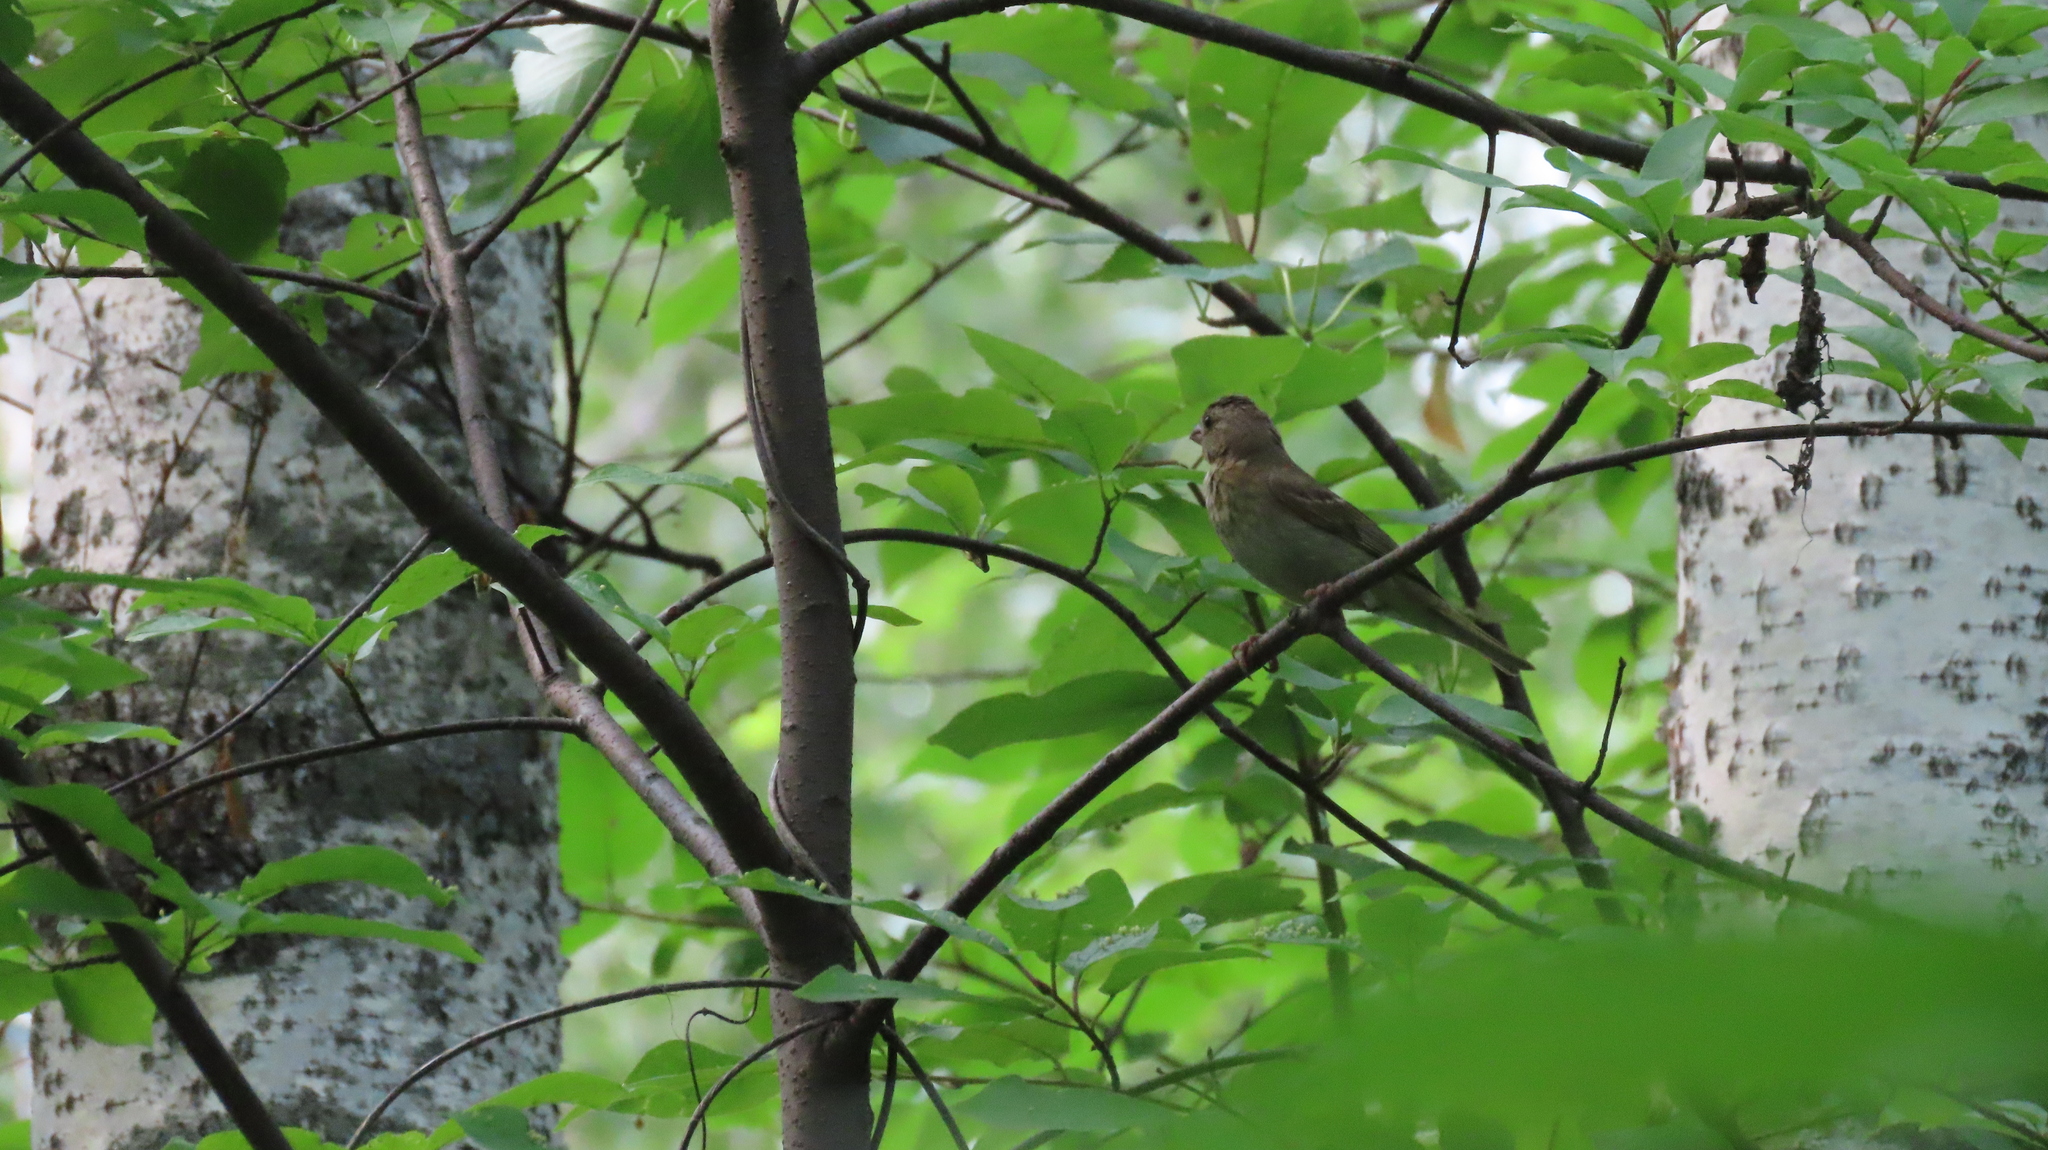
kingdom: Animalia
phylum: Chordata
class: Aves
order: Passeriformes
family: Fringillidae
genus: Carpodacus
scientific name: Carpodacus erythrinus
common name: Common rosefinch
